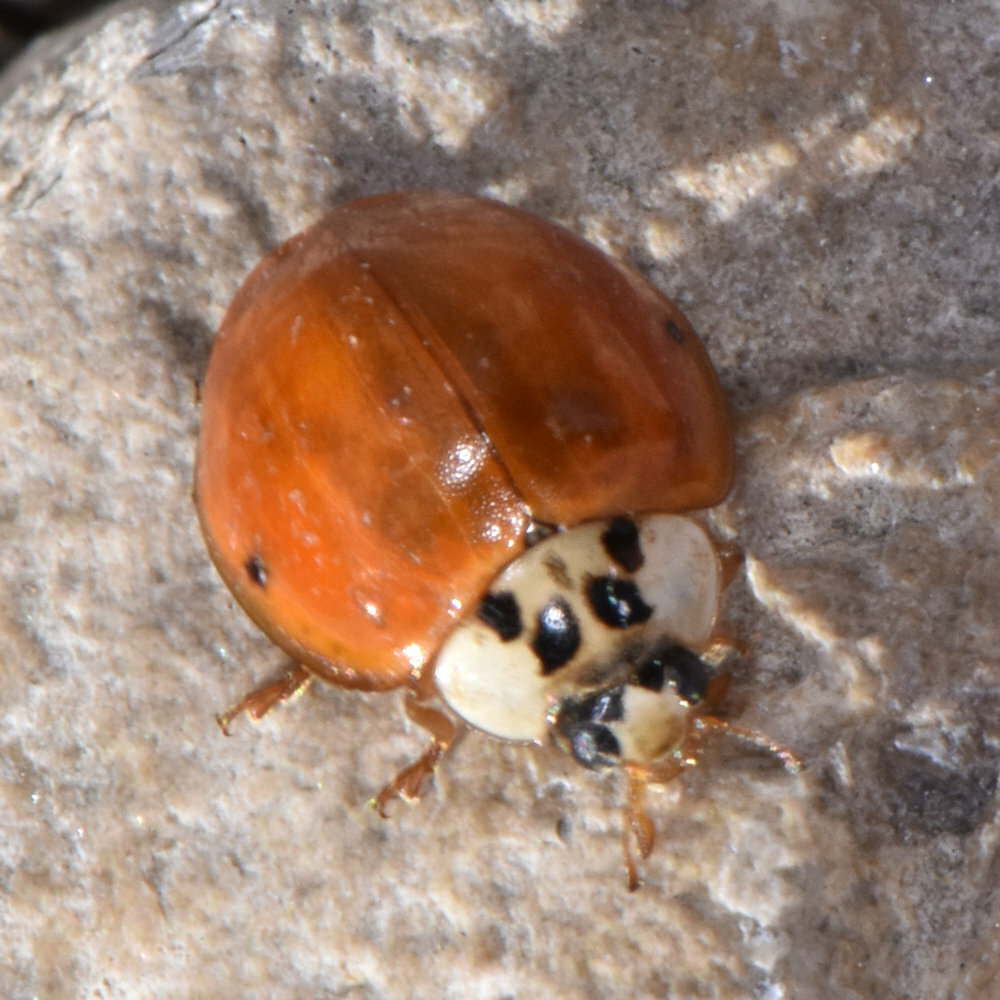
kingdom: Animalia
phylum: Arthropoda
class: Insecta
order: Coleoptera
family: Coccinellidae
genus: Harmonia
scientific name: Harmonia axyridis
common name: Harlequin ladybird
